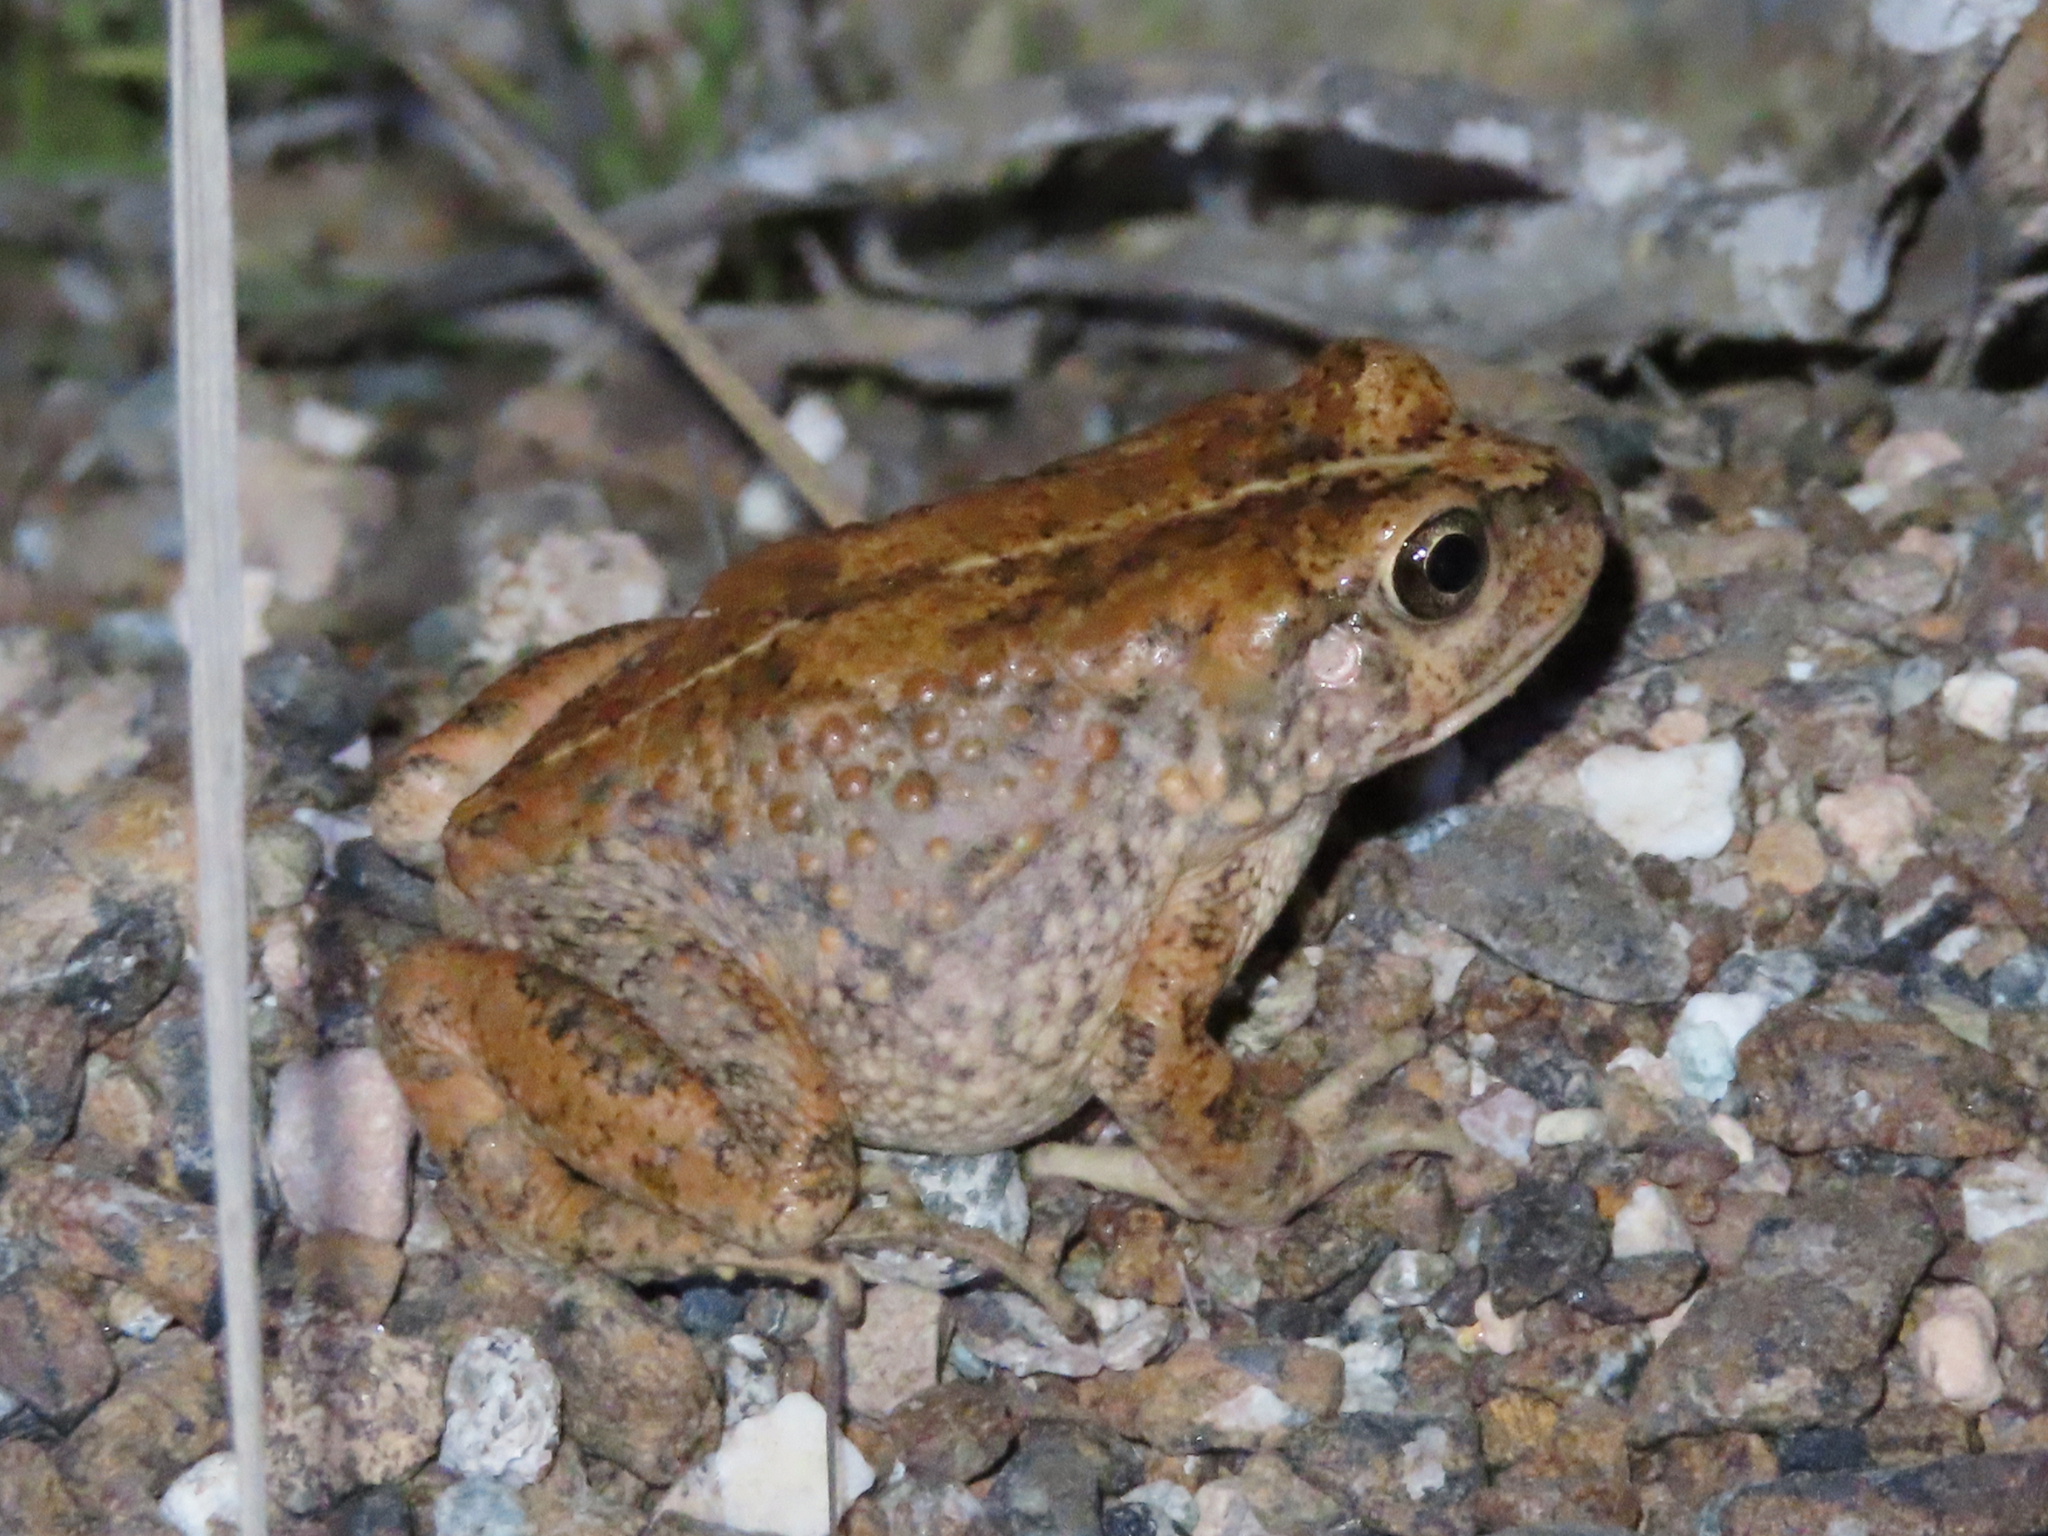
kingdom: Animalia
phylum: Chordata
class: Amphibia
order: Anura
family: Bufonidae
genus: Sclerophrys
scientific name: Sclerophrys arabica
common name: Arabian toad
